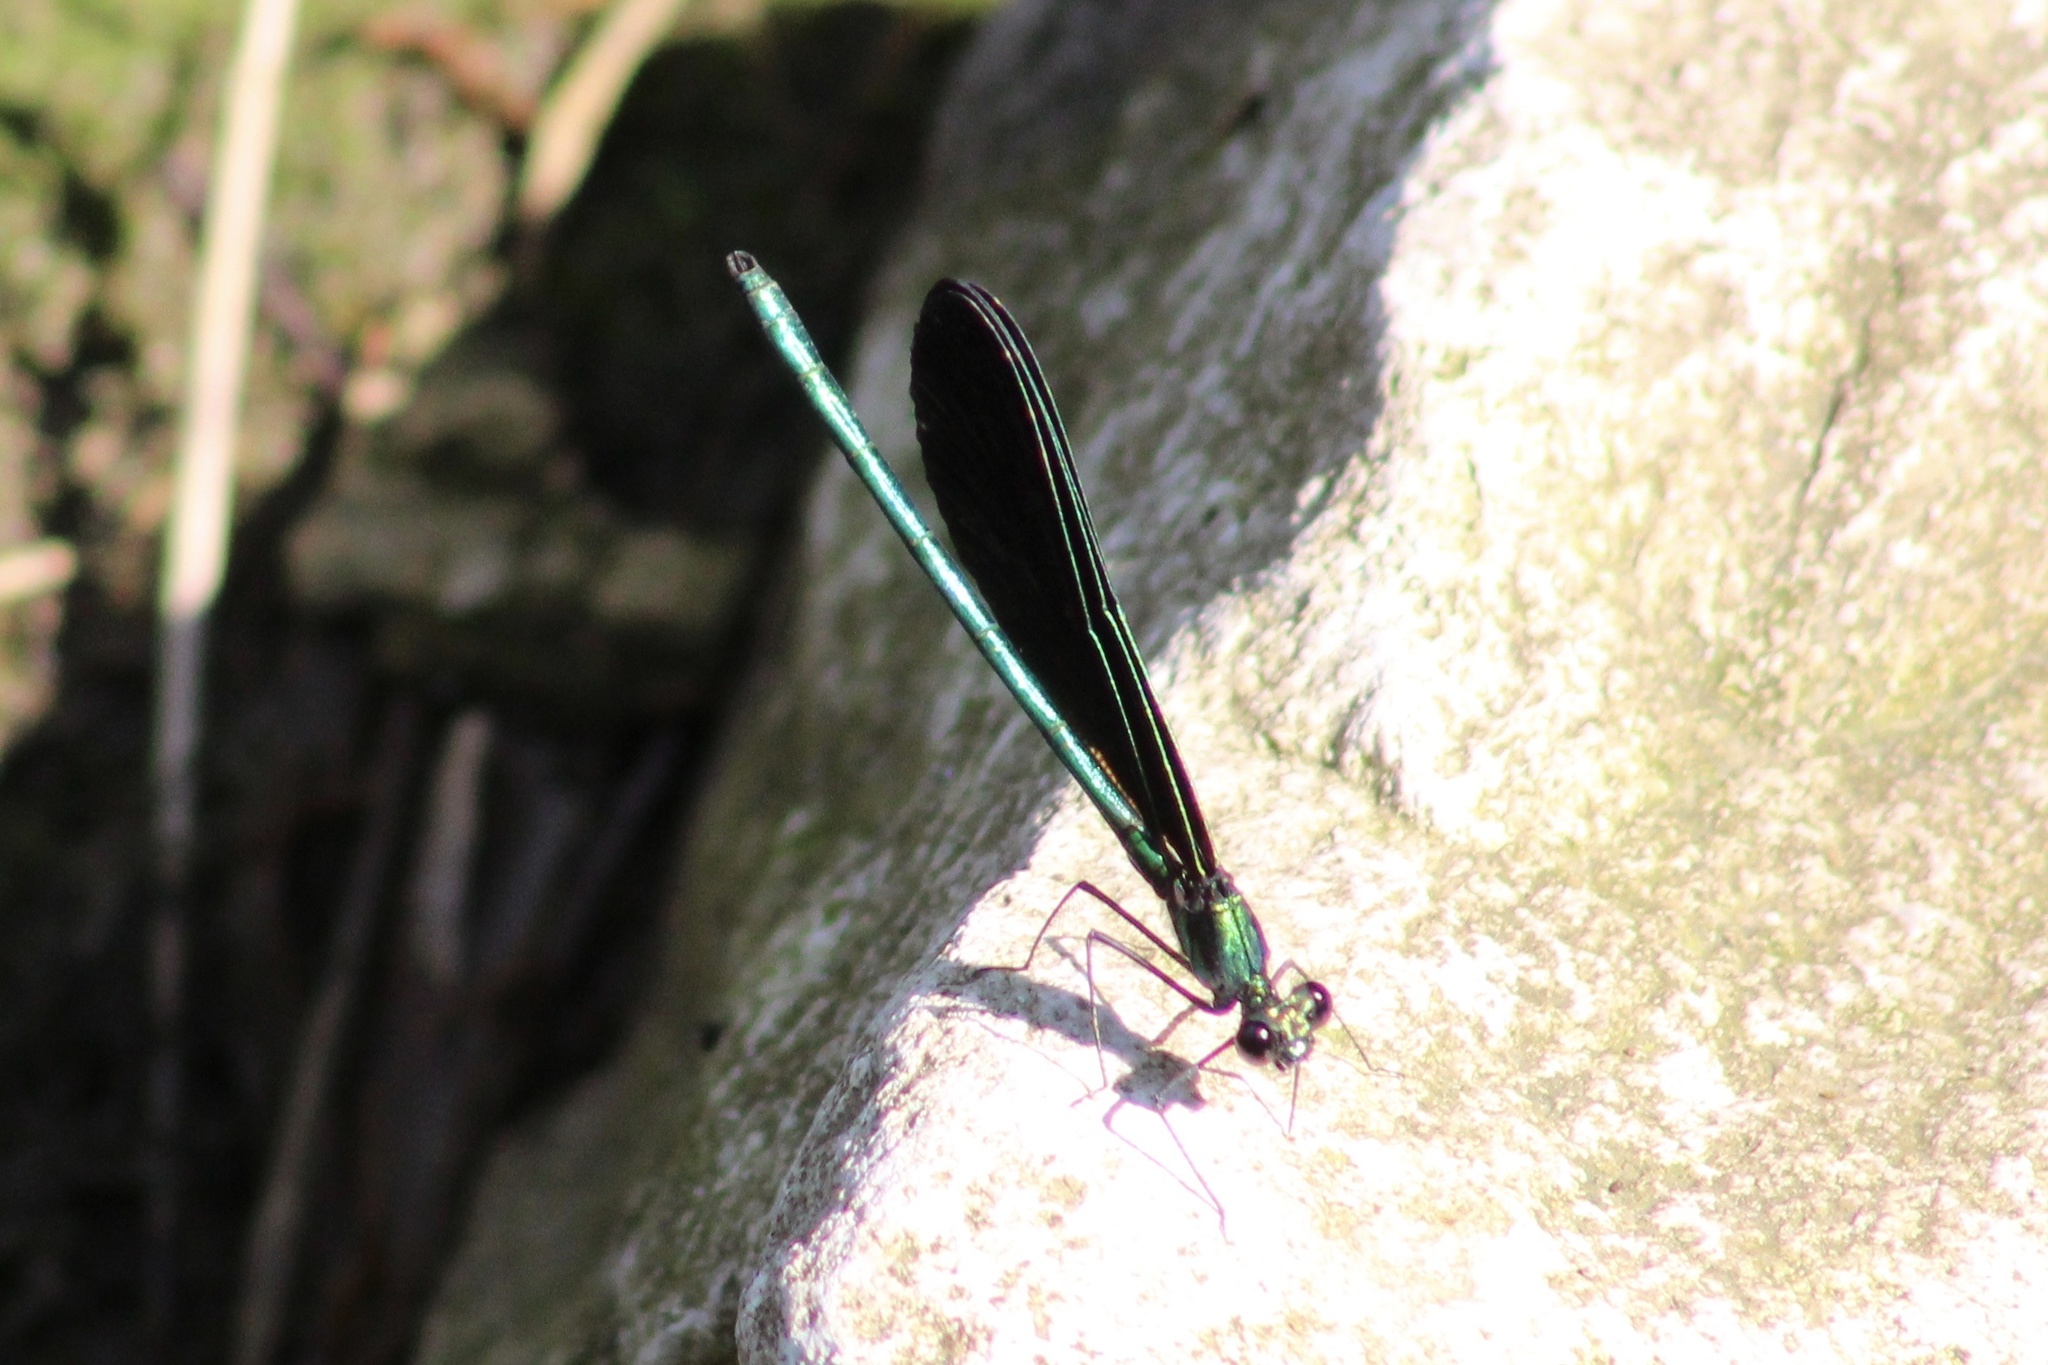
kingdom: Animalia
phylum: Arthropoda
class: Insecta
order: Odonata
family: Calopterygidae
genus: Calopteryx
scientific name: Calopteryx maculata
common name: Ebony jewelwing
